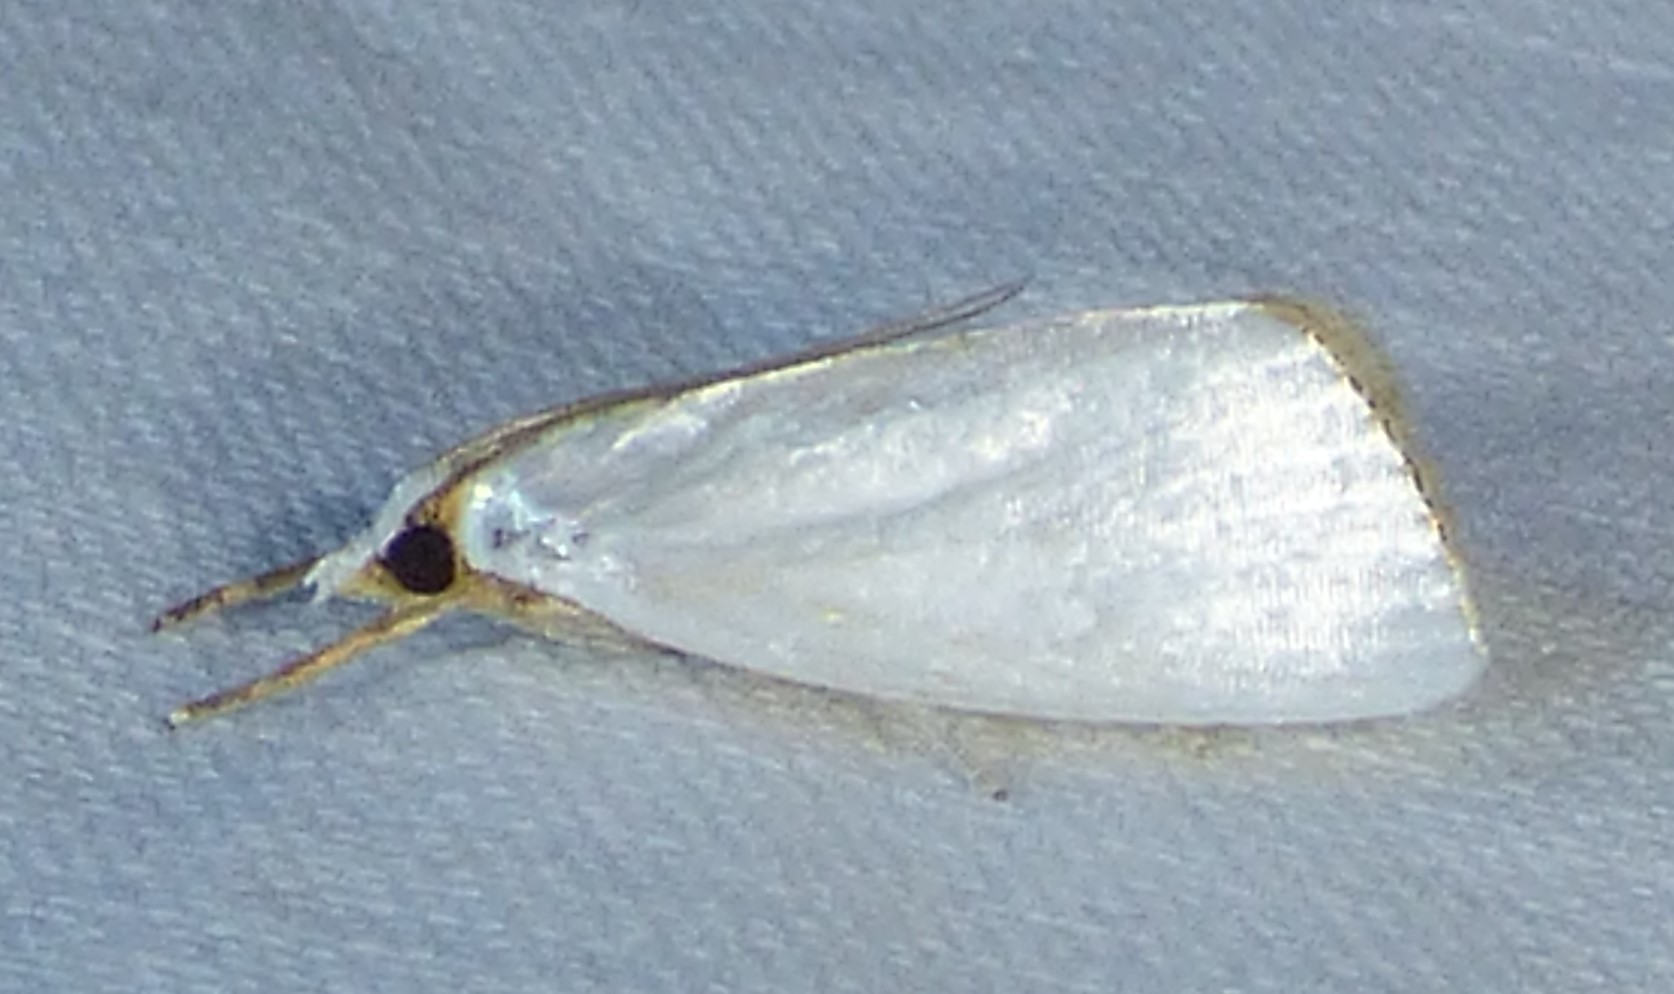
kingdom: Animalia
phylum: Arthropoda
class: Insecta
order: Lepidoptera
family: Crambidae
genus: Argyria
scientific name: Argyria nivalis
